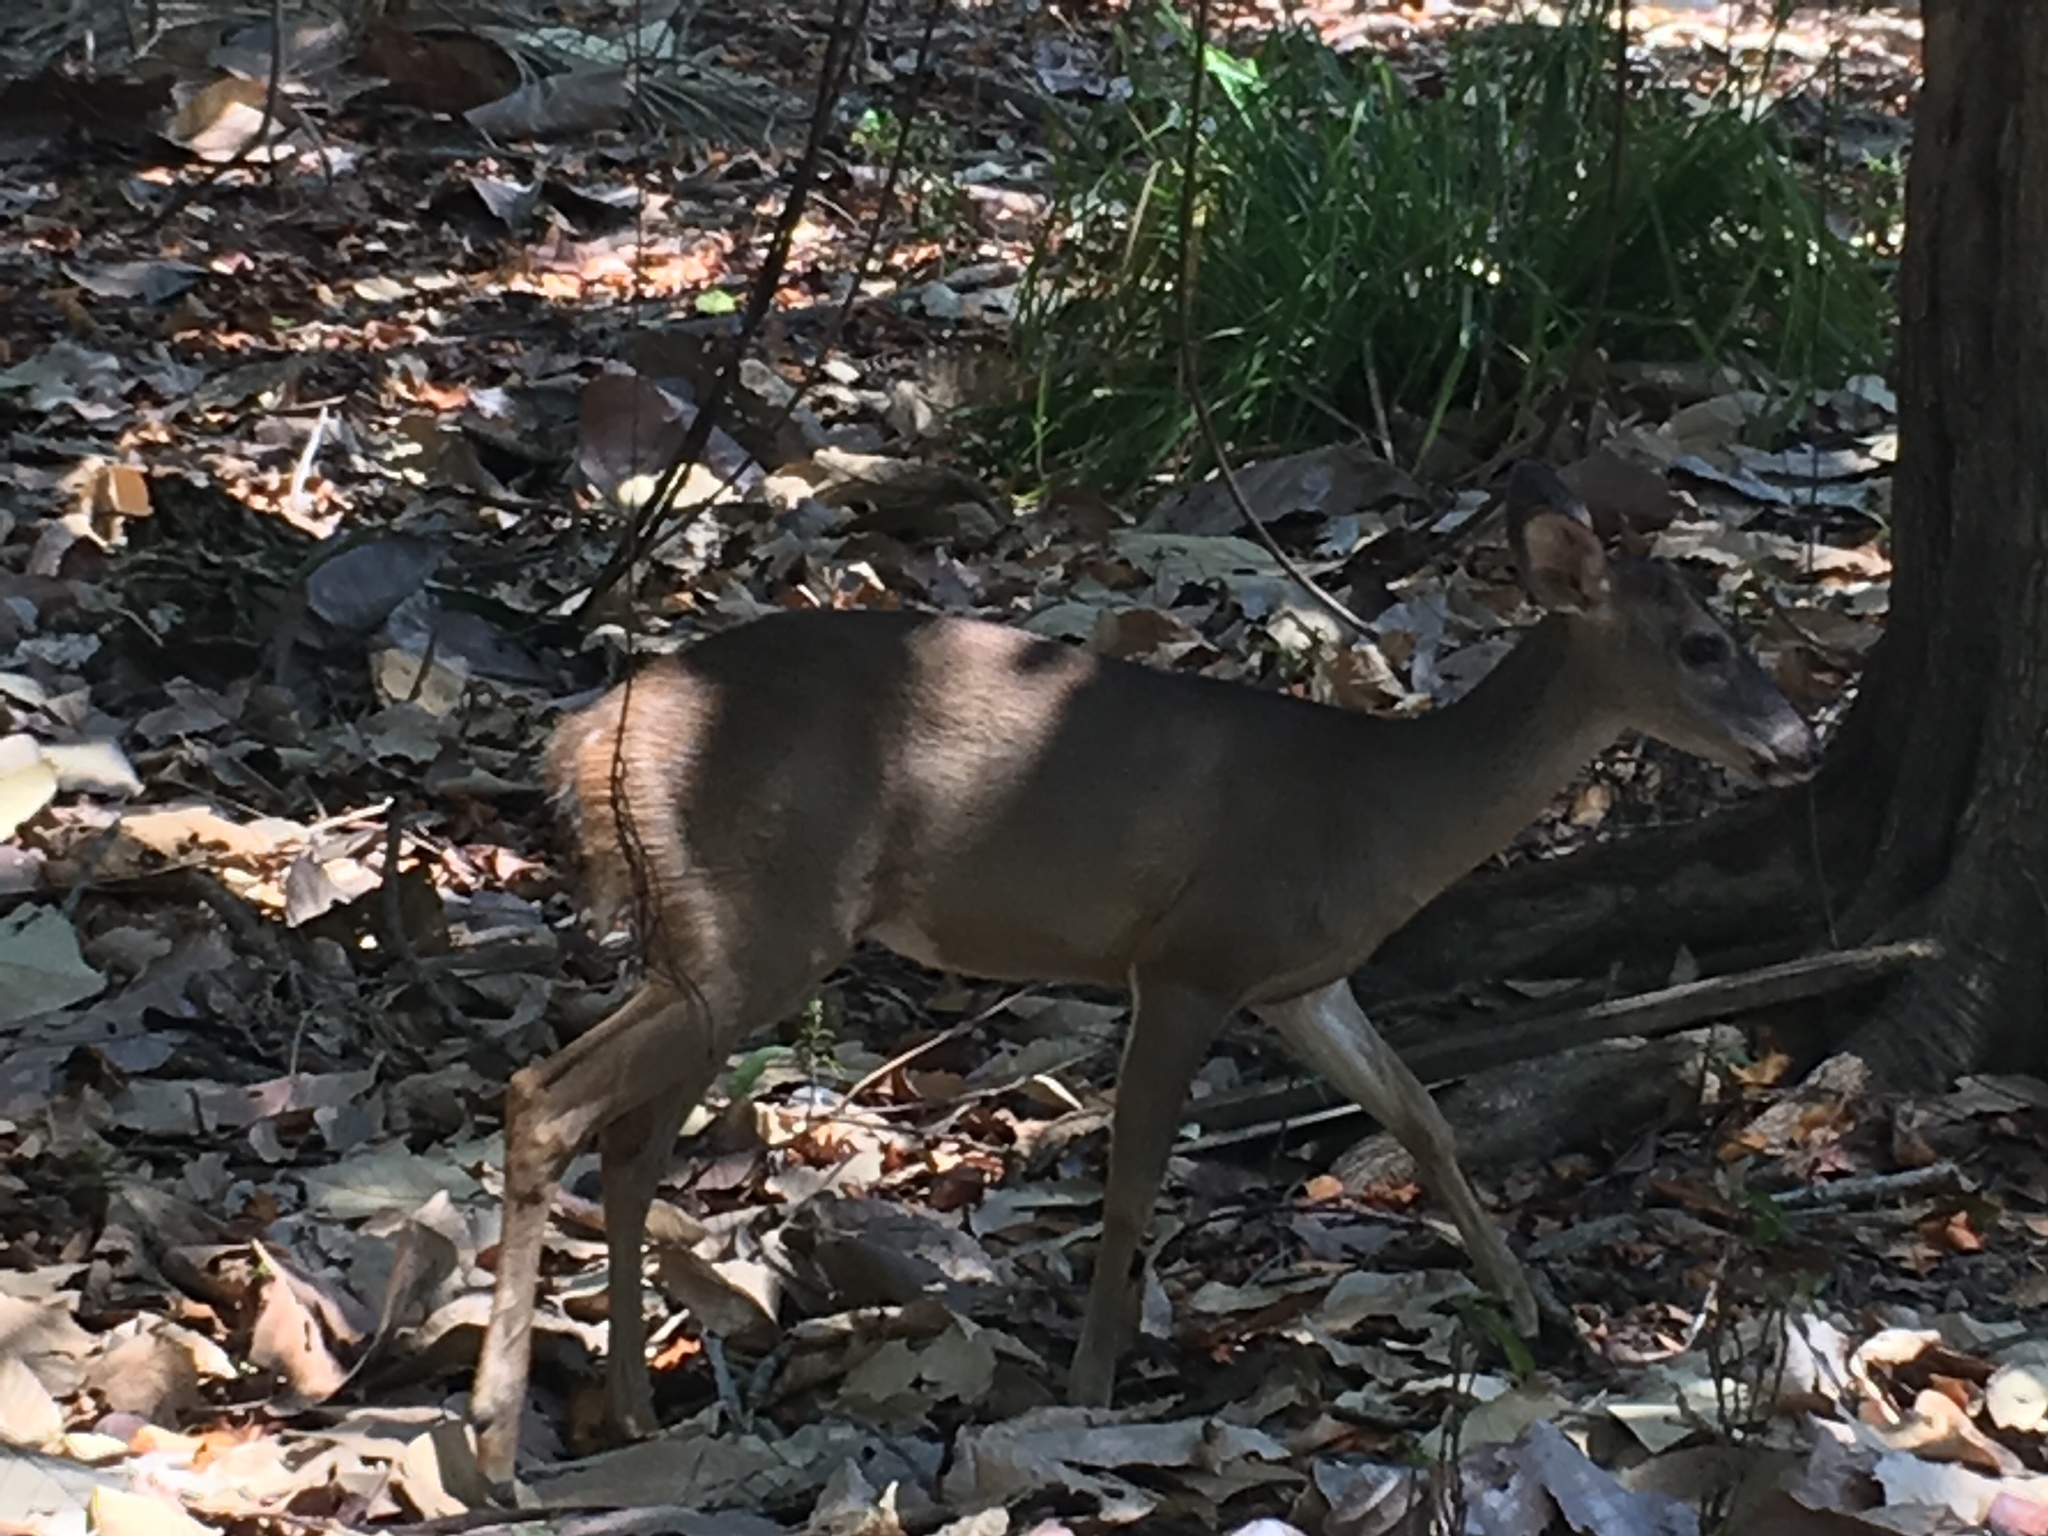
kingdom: Animalia
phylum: Chordata
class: Mammalia
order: Artiodactyla
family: Cervidae
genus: Odocoileus
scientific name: Odocoileus virginianus
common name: White-tailed deer
